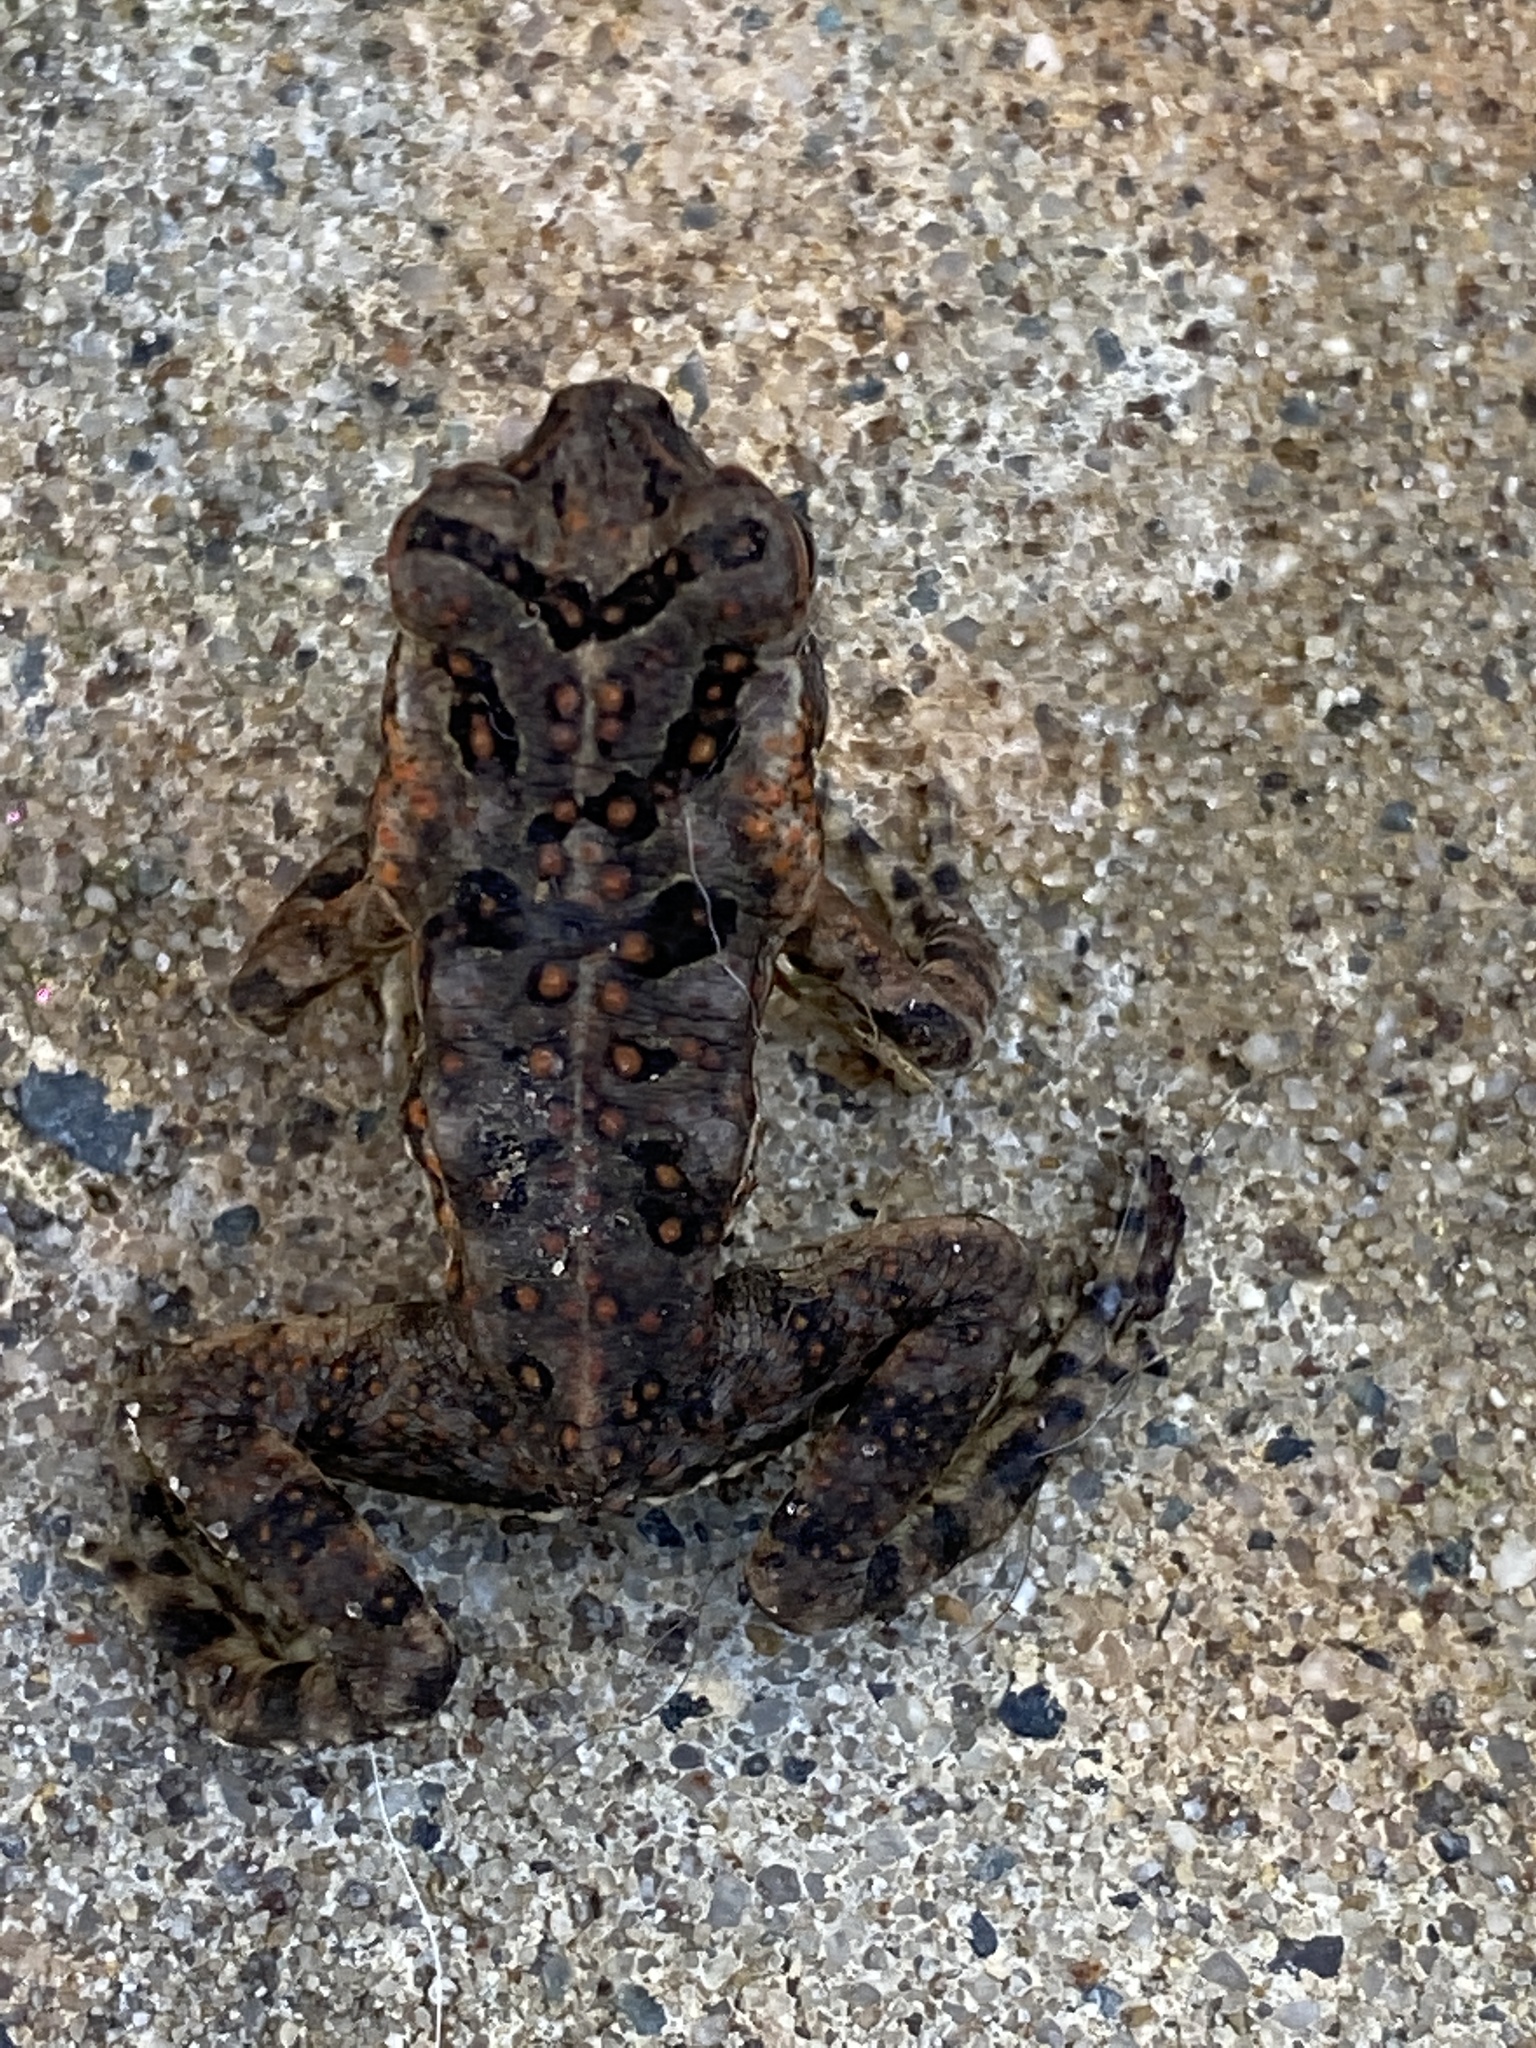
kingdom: Animalia
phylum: Chordata
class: Amphibia
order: Anura
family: Bufonidae
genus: Rhinella
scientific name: Rhinella marina
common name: Cane toad
